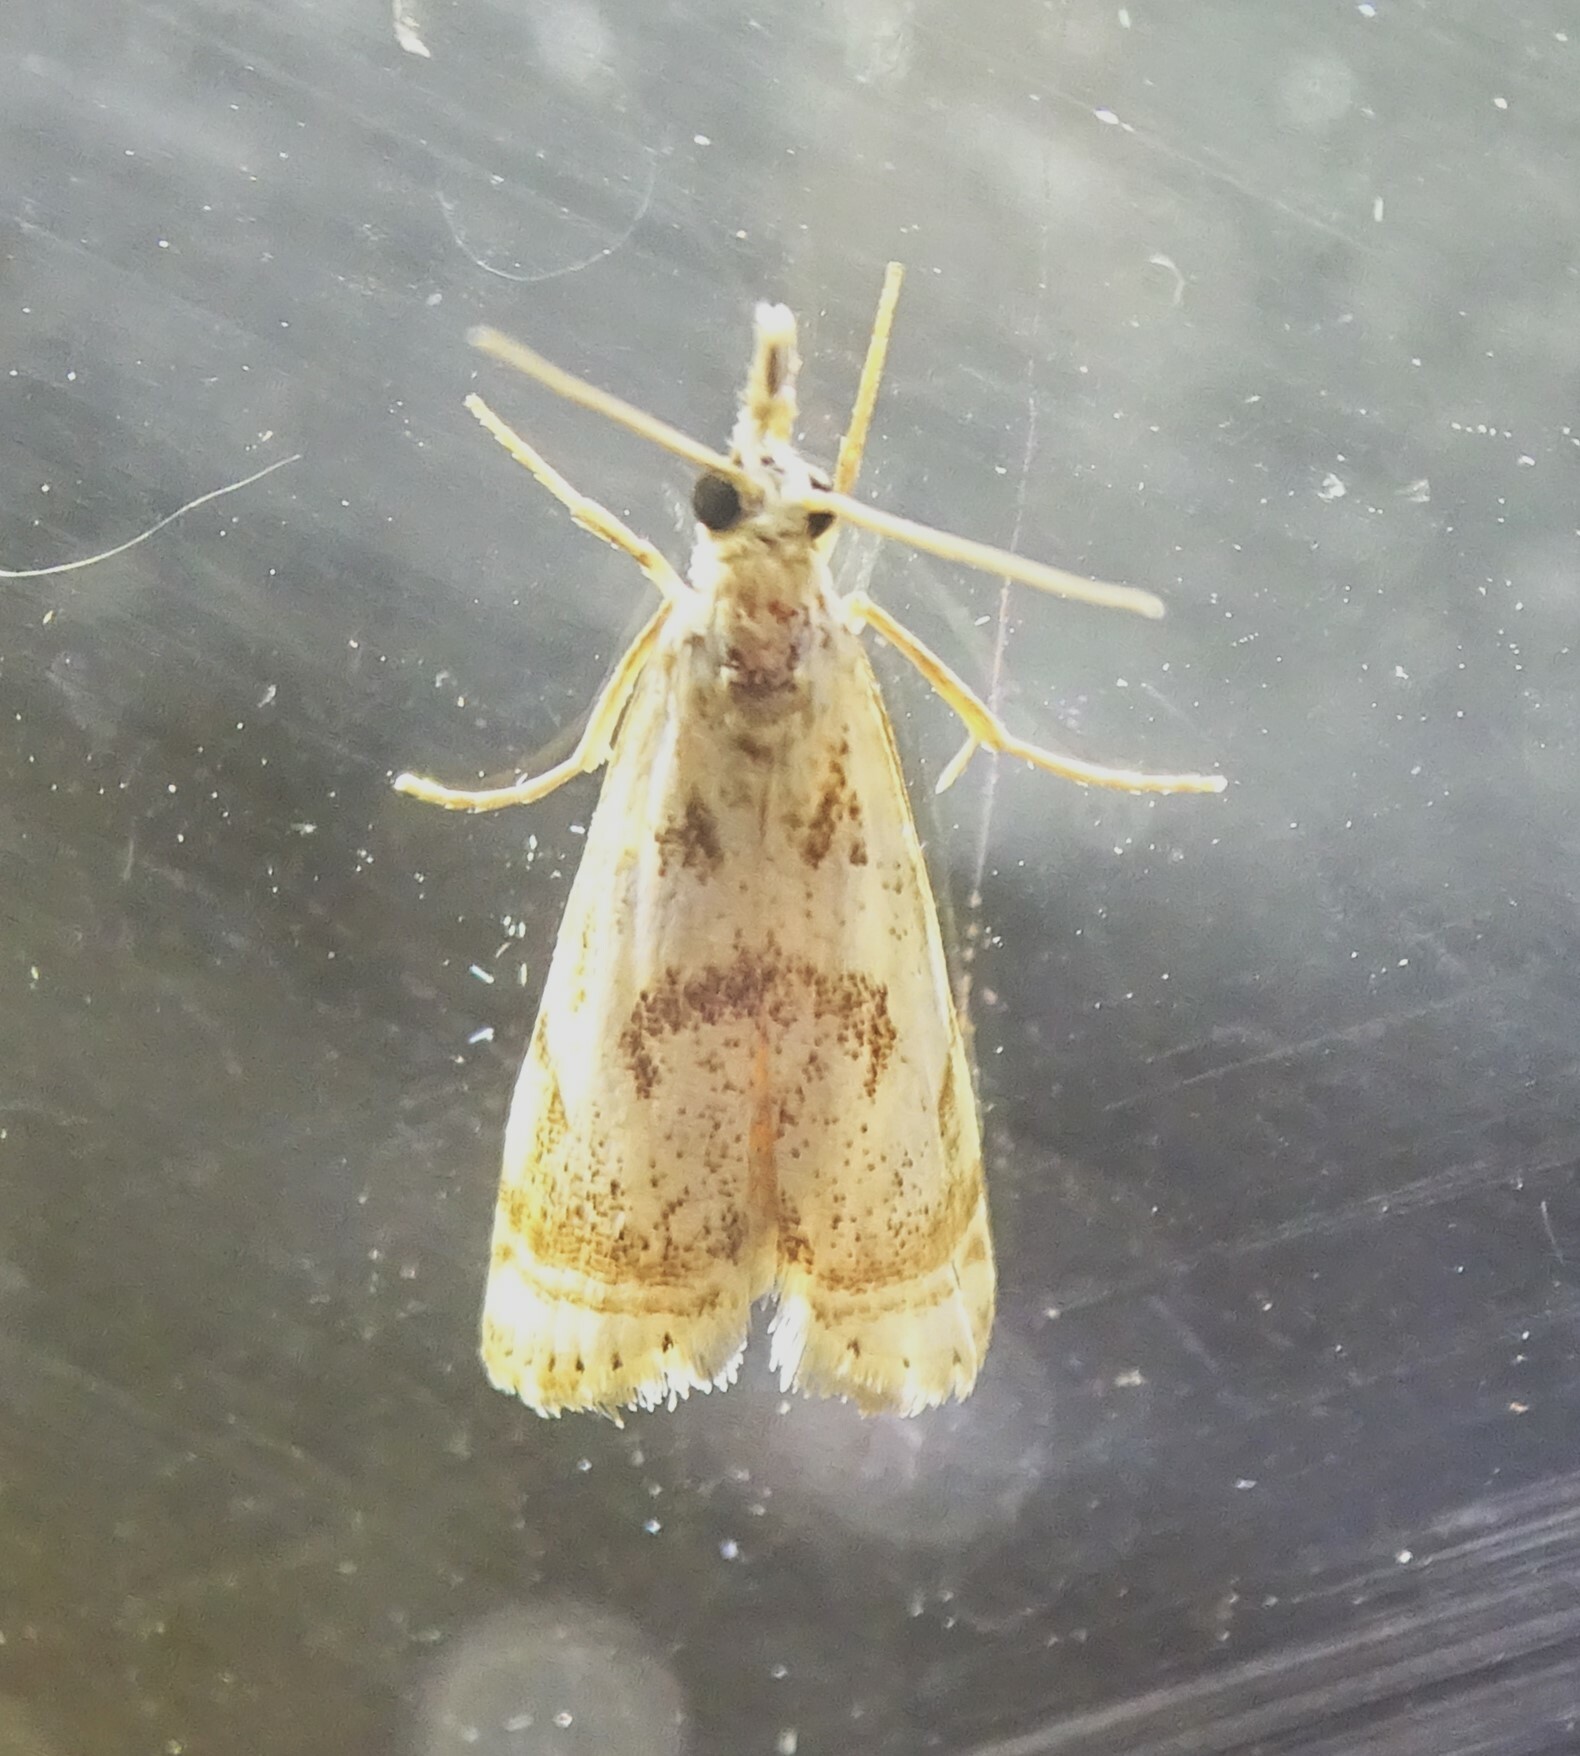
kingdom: Animalia
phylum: Arthropoda
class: Insecta
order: Lepidoptera
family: Crambidae
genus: Microcrambus
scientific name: Microcrambus elegans
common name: Elegant grass-veneer
